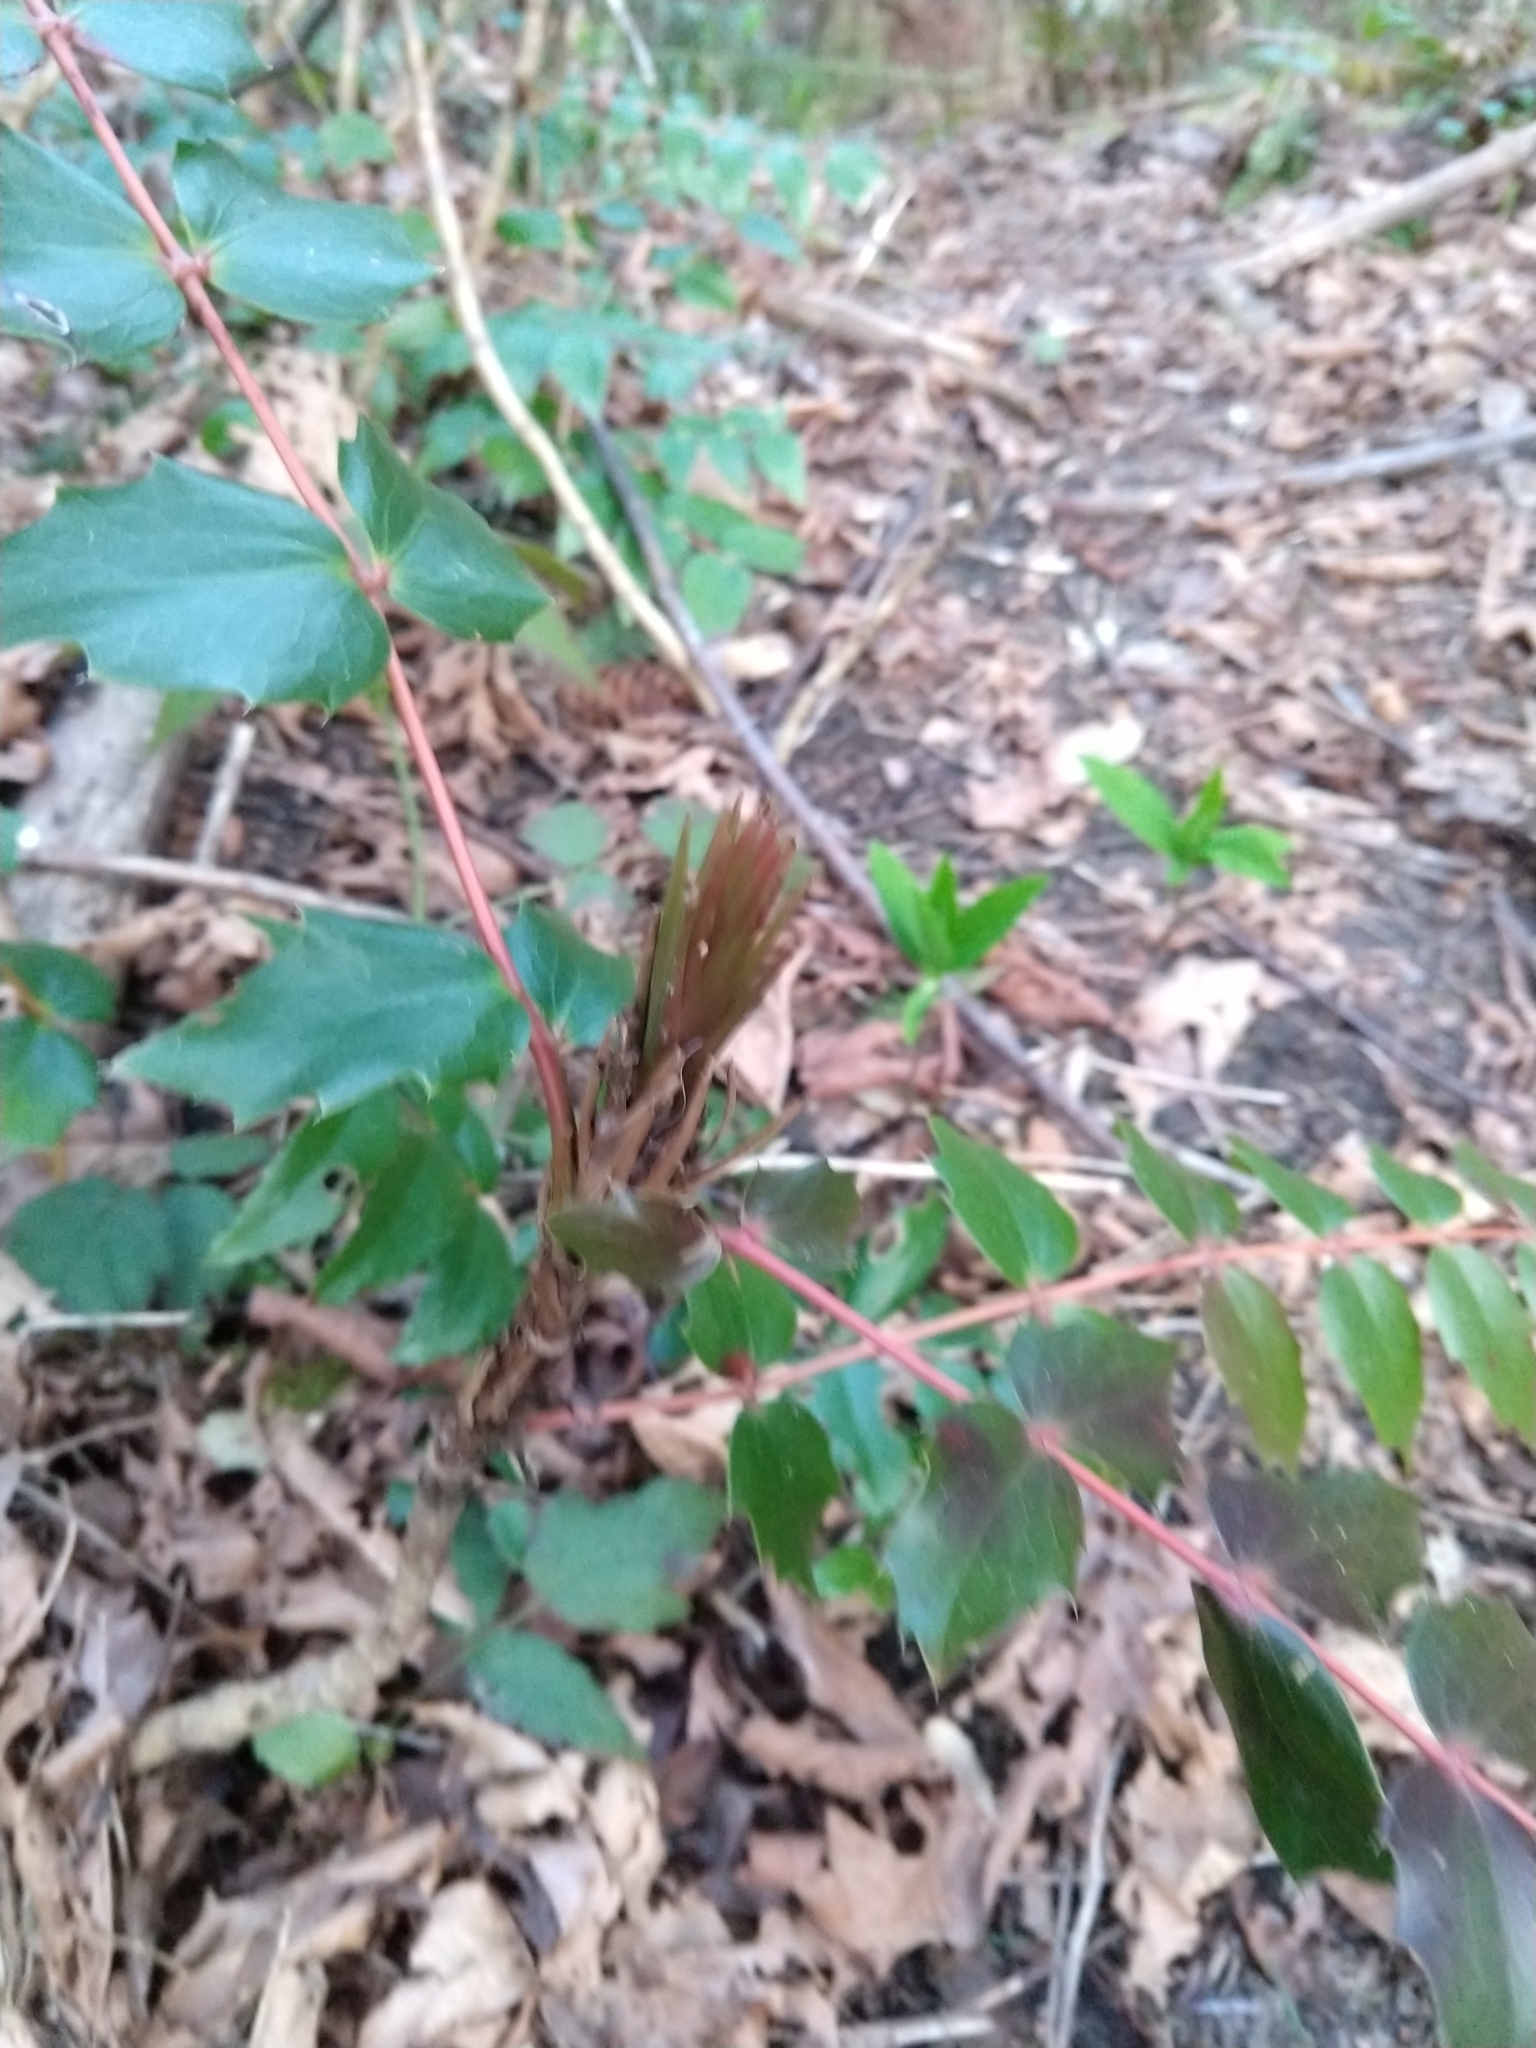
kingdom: Plantae
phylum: Tracheophyta
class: Magnoliopsida
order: Ranunculales
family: Berberidaceae
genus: Mahonia
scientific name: Mahonia nervosa
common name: Cascade oregon-grape
